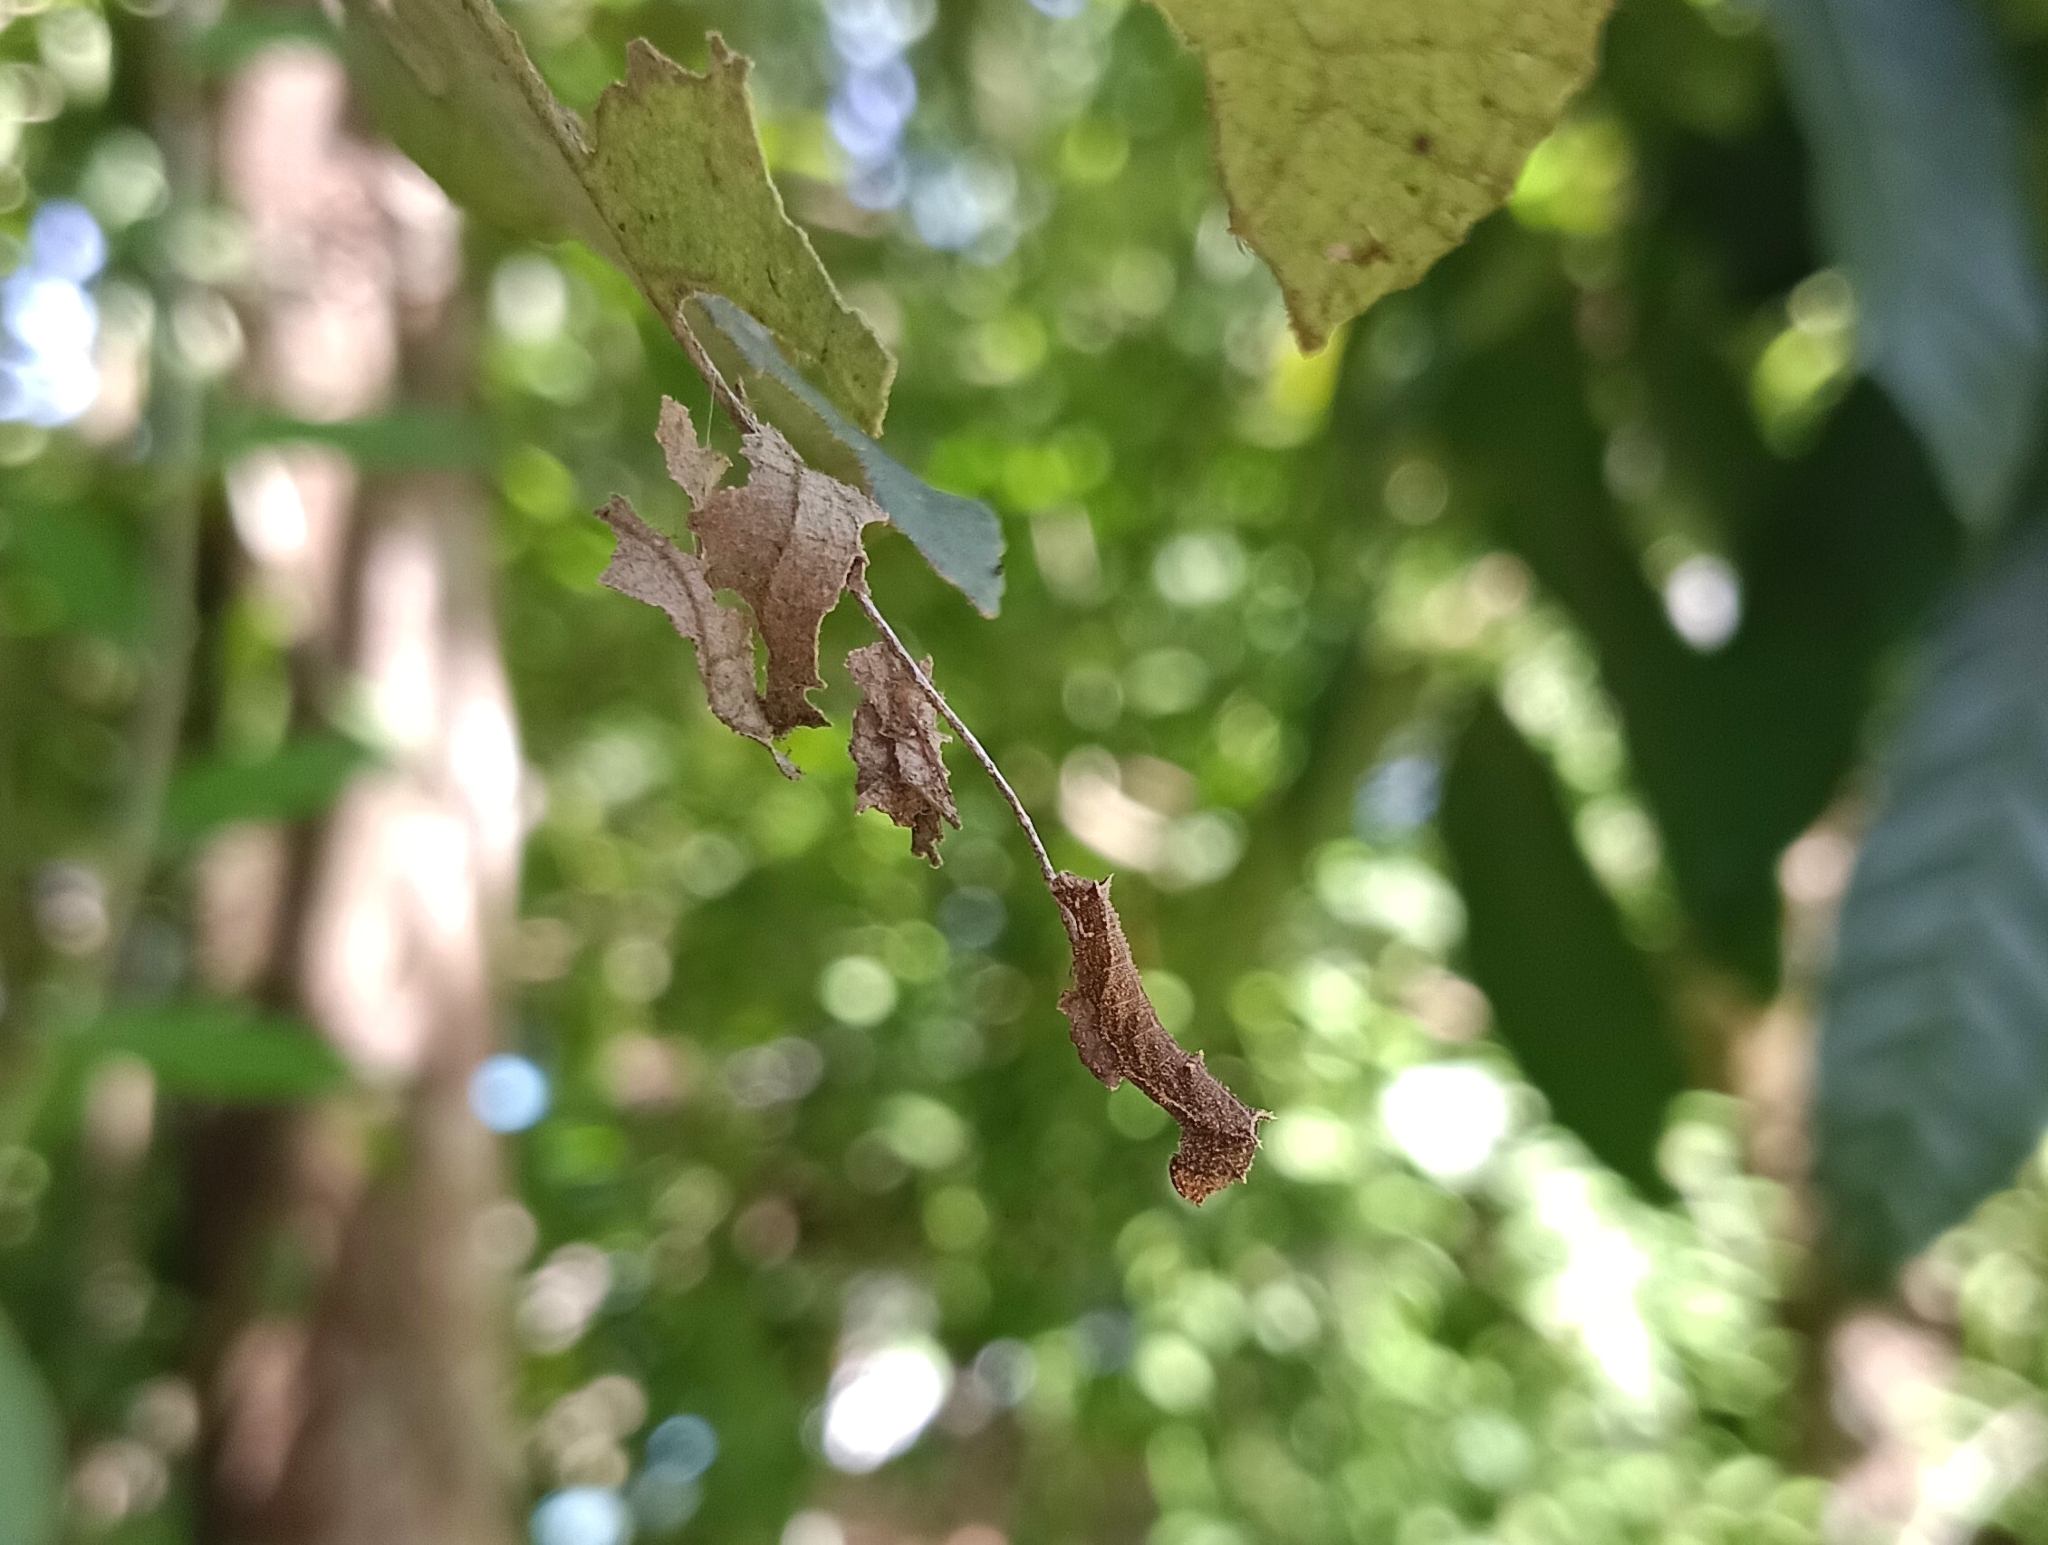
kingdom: Animalia
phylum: Arthropoda
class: Insecta
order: Lepidoptera
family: Nymphalidae
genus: Neptis
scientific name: Neptis jumbah
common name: Chestnut-streaked sailer
